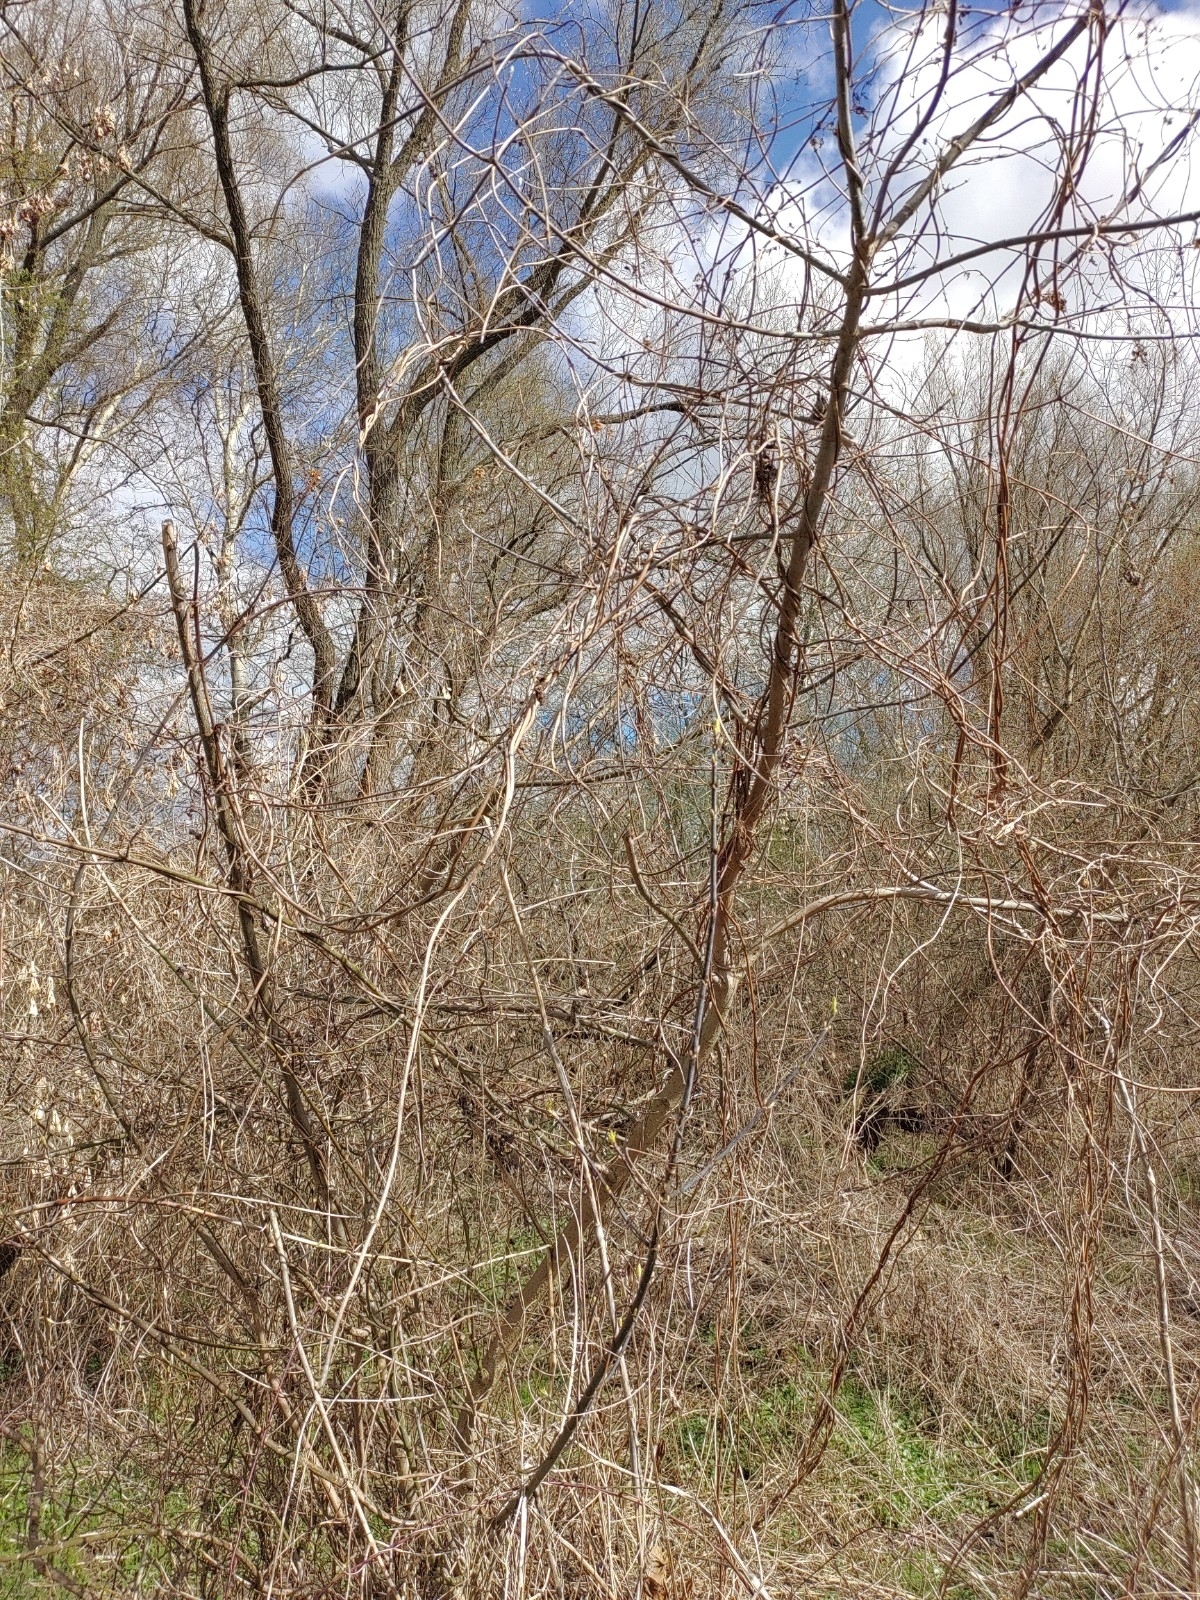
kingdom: Animalia
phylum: Chordata
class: Aves
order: Passeriformes
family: Troglodytidae
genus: Troglodytes
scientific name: Troglodytes troglodytes
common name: Eurasian wren
